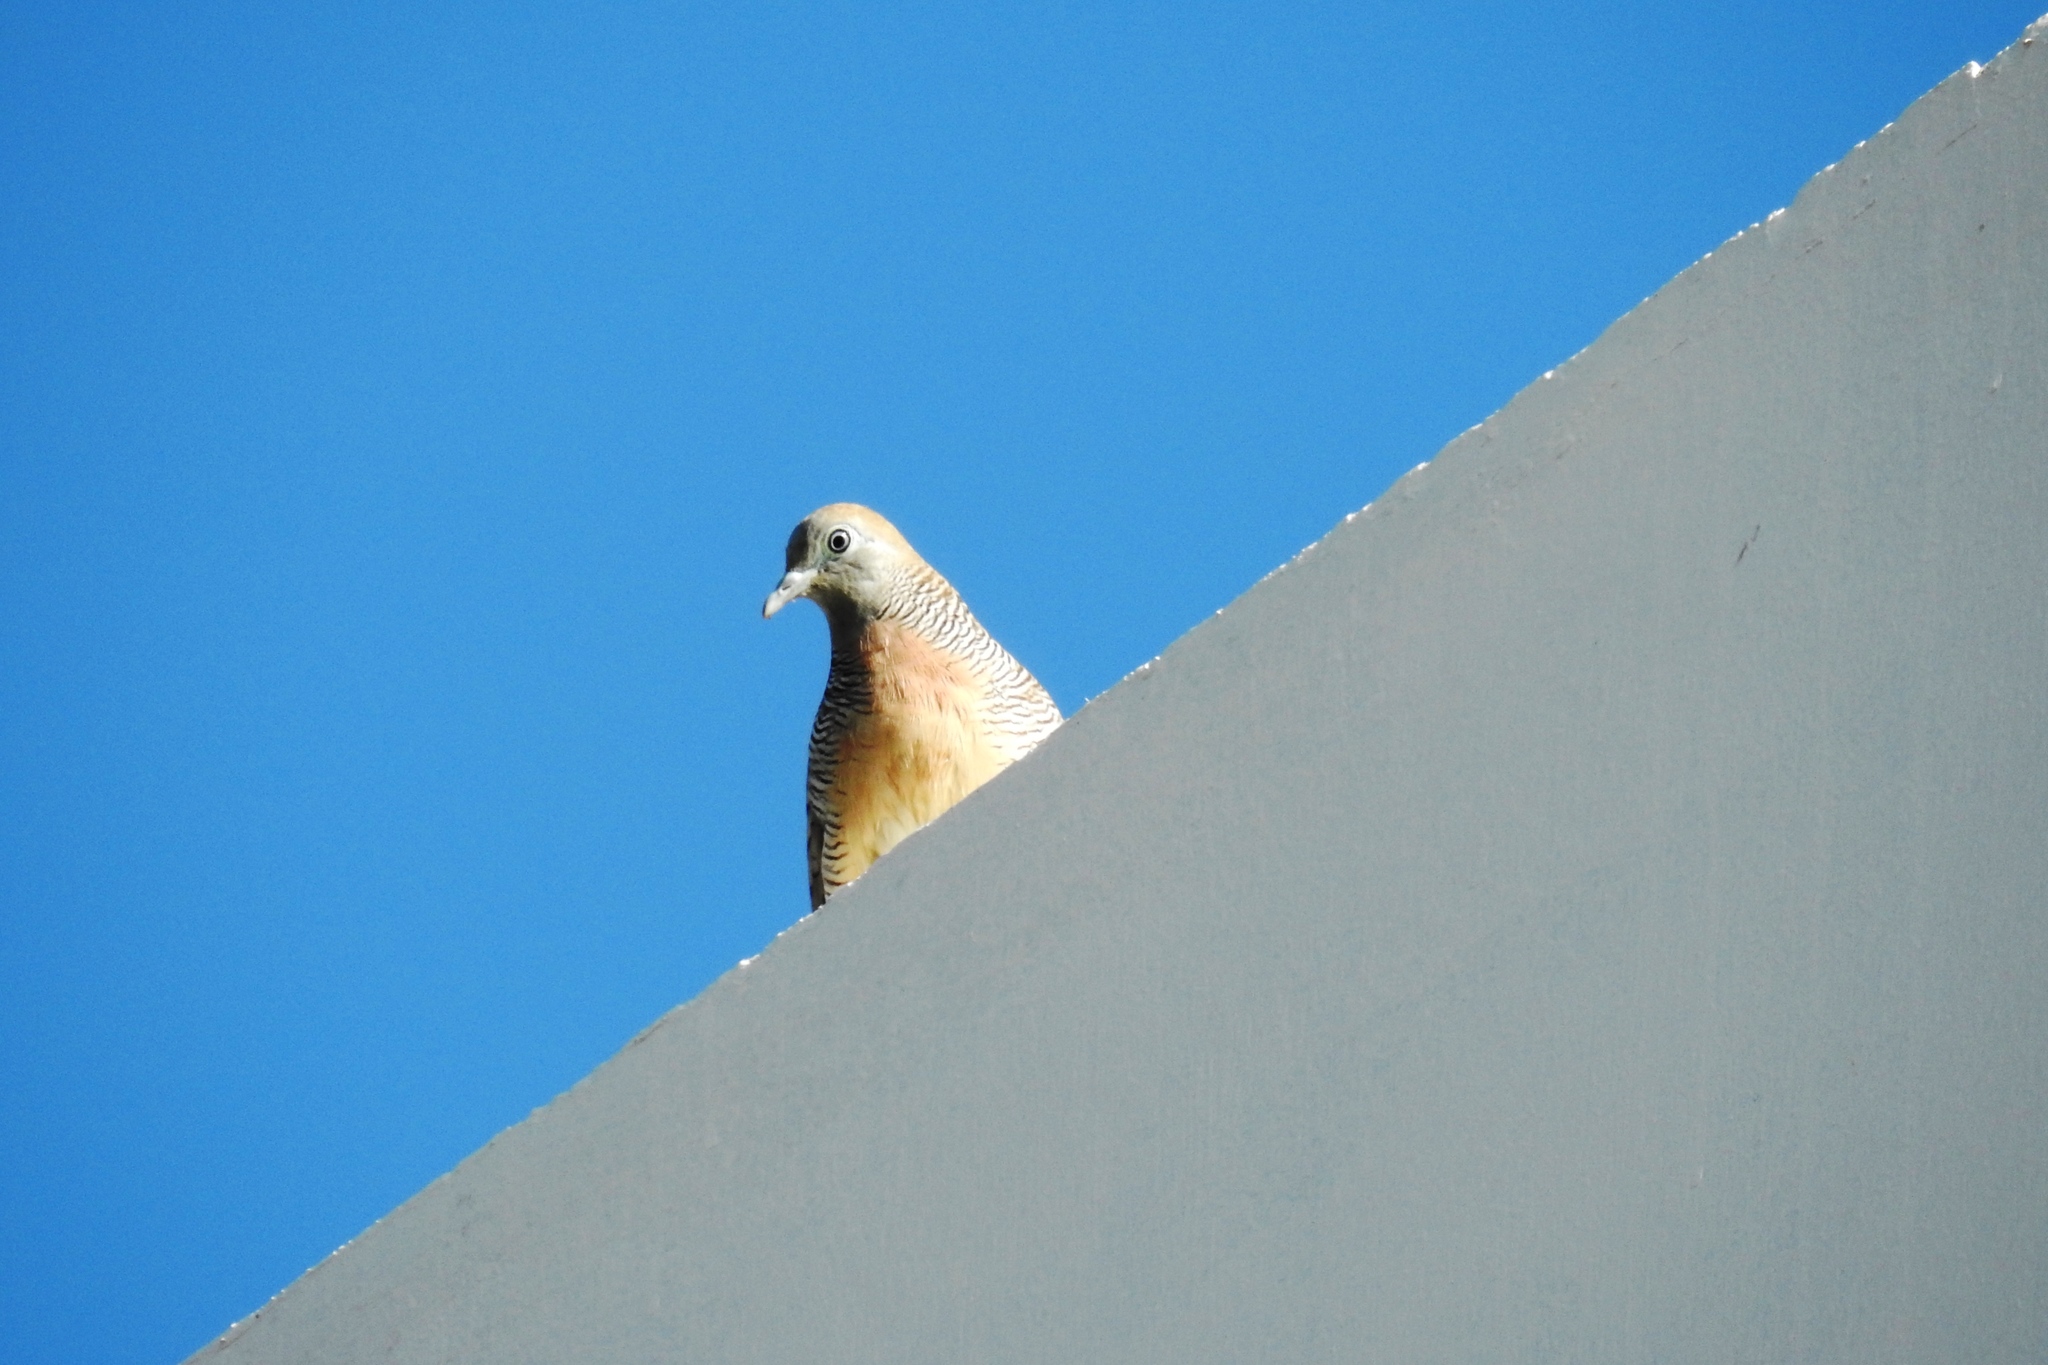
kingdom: Animalia
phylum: Chordata
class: Aves
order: Columbiformes
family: Columbidae
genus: Geopelia
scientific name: Geopelia striata
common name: Zebra dove
